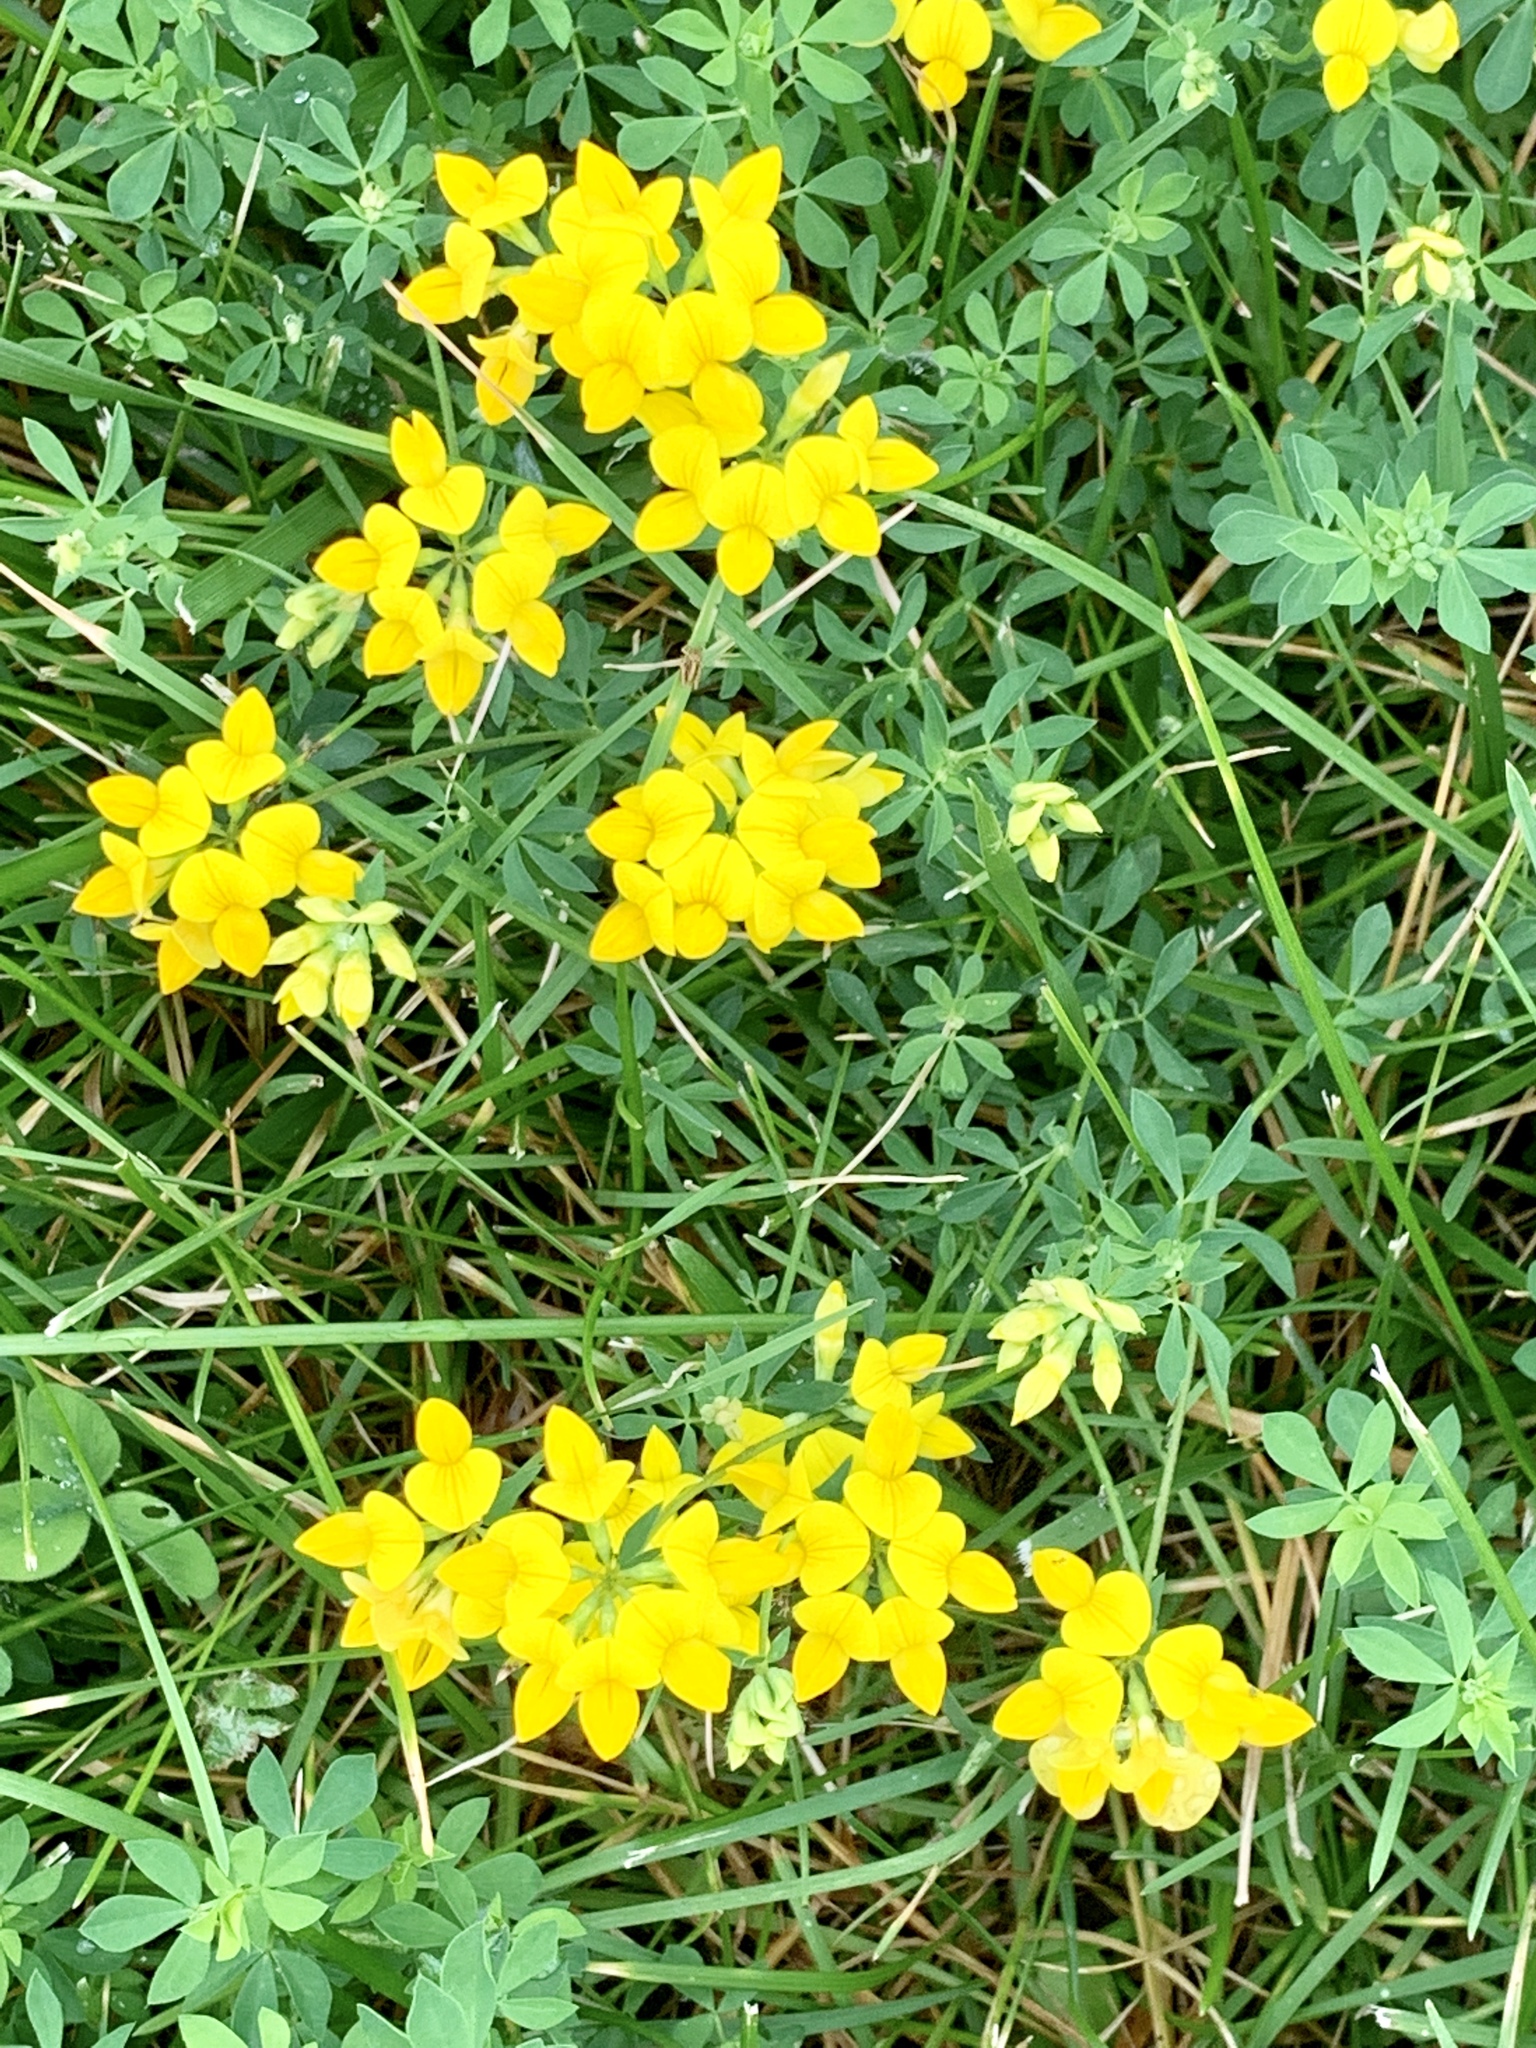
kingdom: Plantae
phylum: Tracheophyta
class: Magnoliopsida
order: Fabales
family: Fabaceae
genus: Lotus
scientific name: Lotus corniculatus
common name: Common bird's-foot-trefoil
